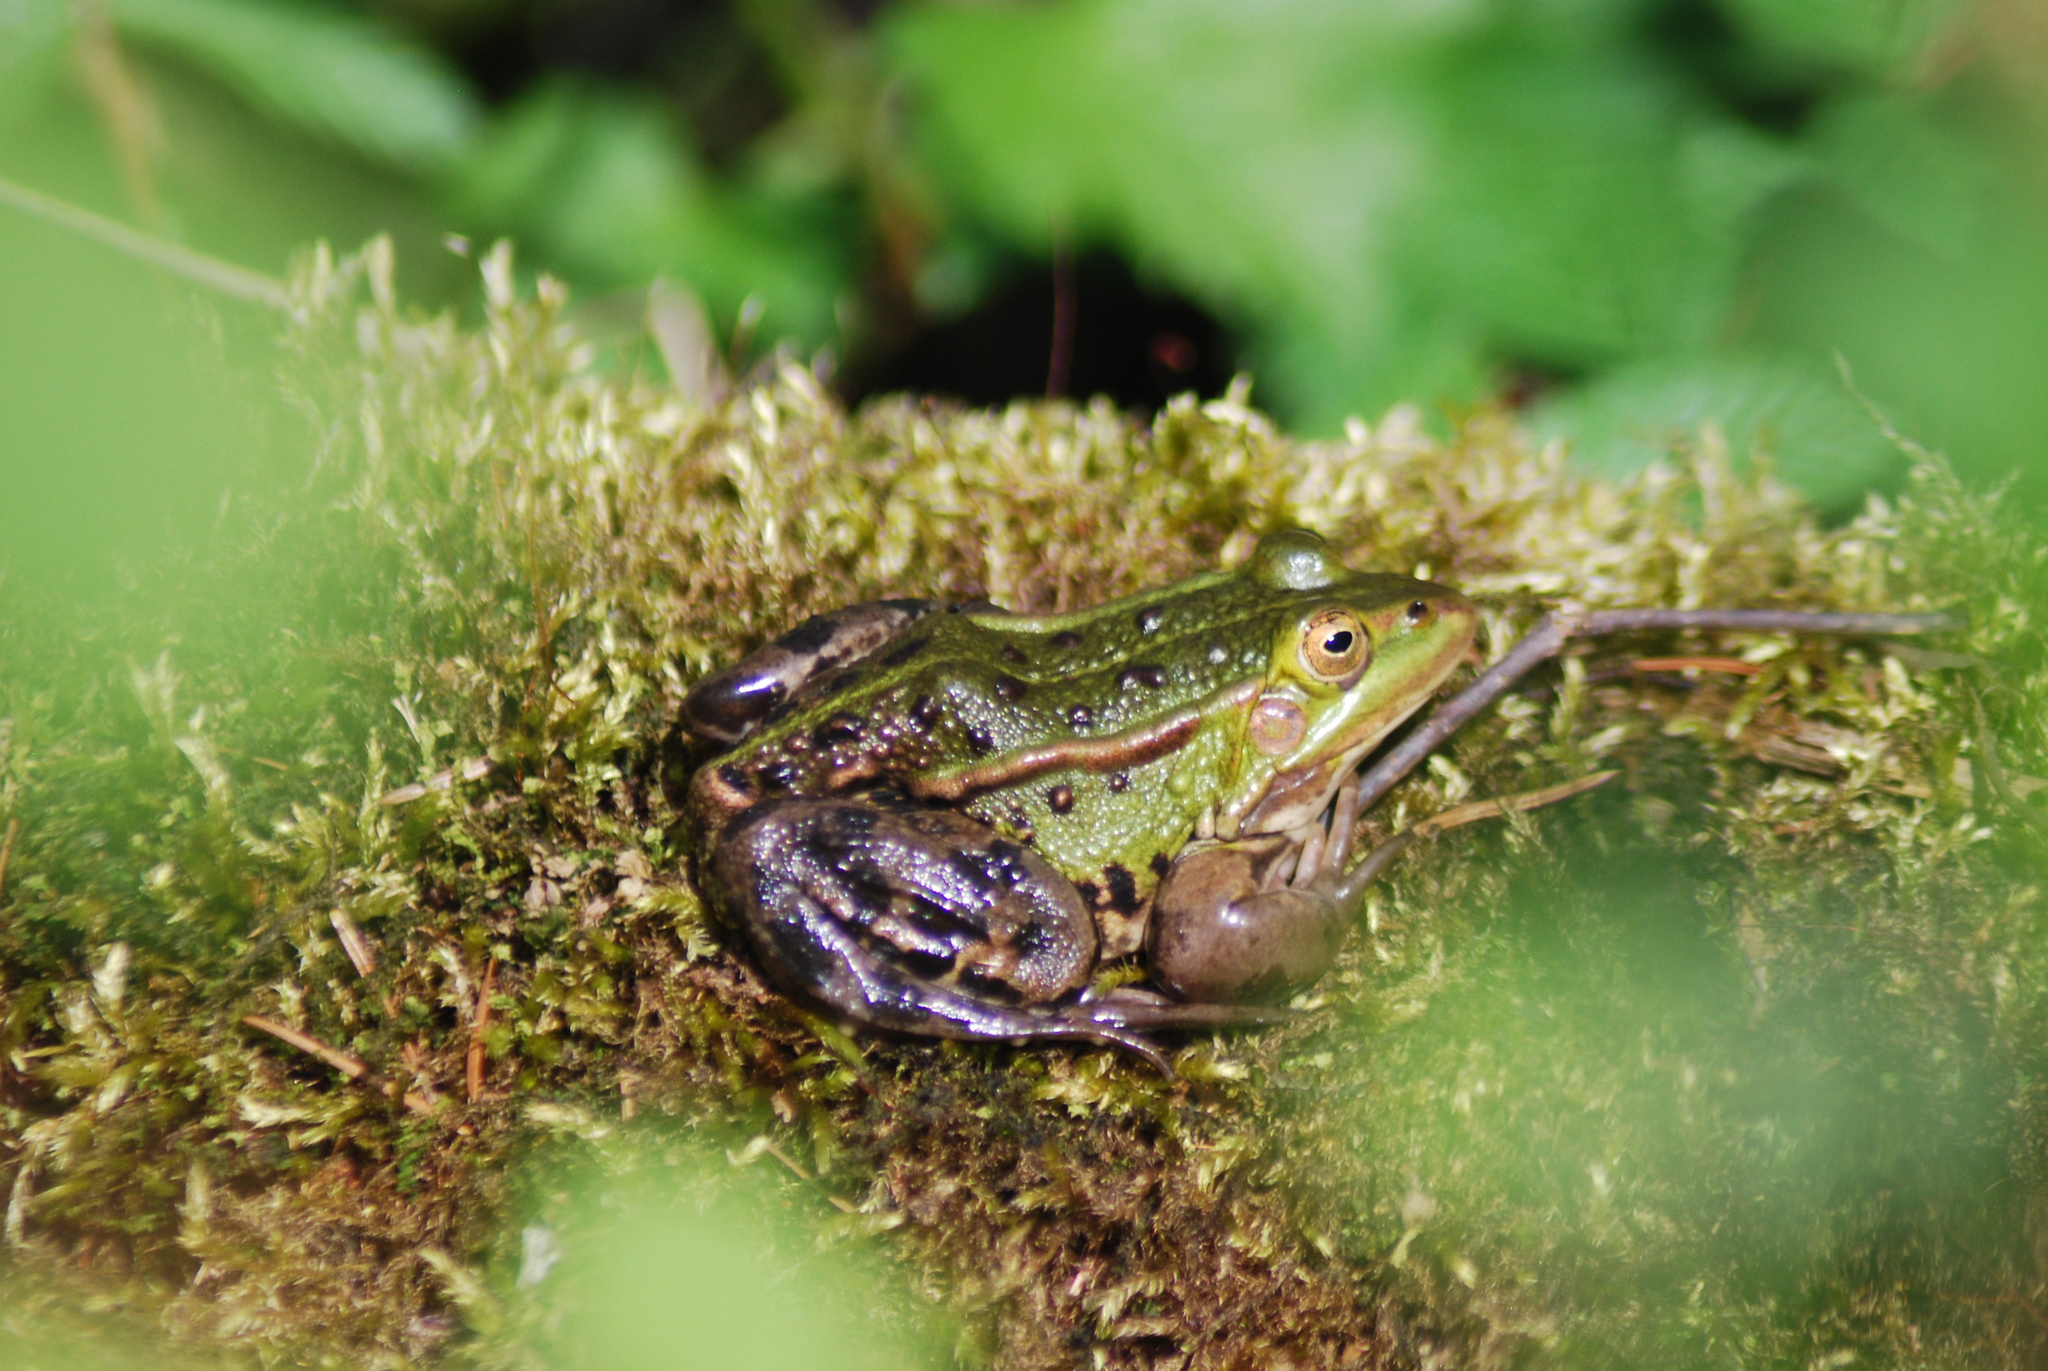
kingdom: Animalia
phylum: Chordata
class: Amphibia
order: Anura
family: Ranidae
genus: Pelophylax
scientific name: Pelophylax
